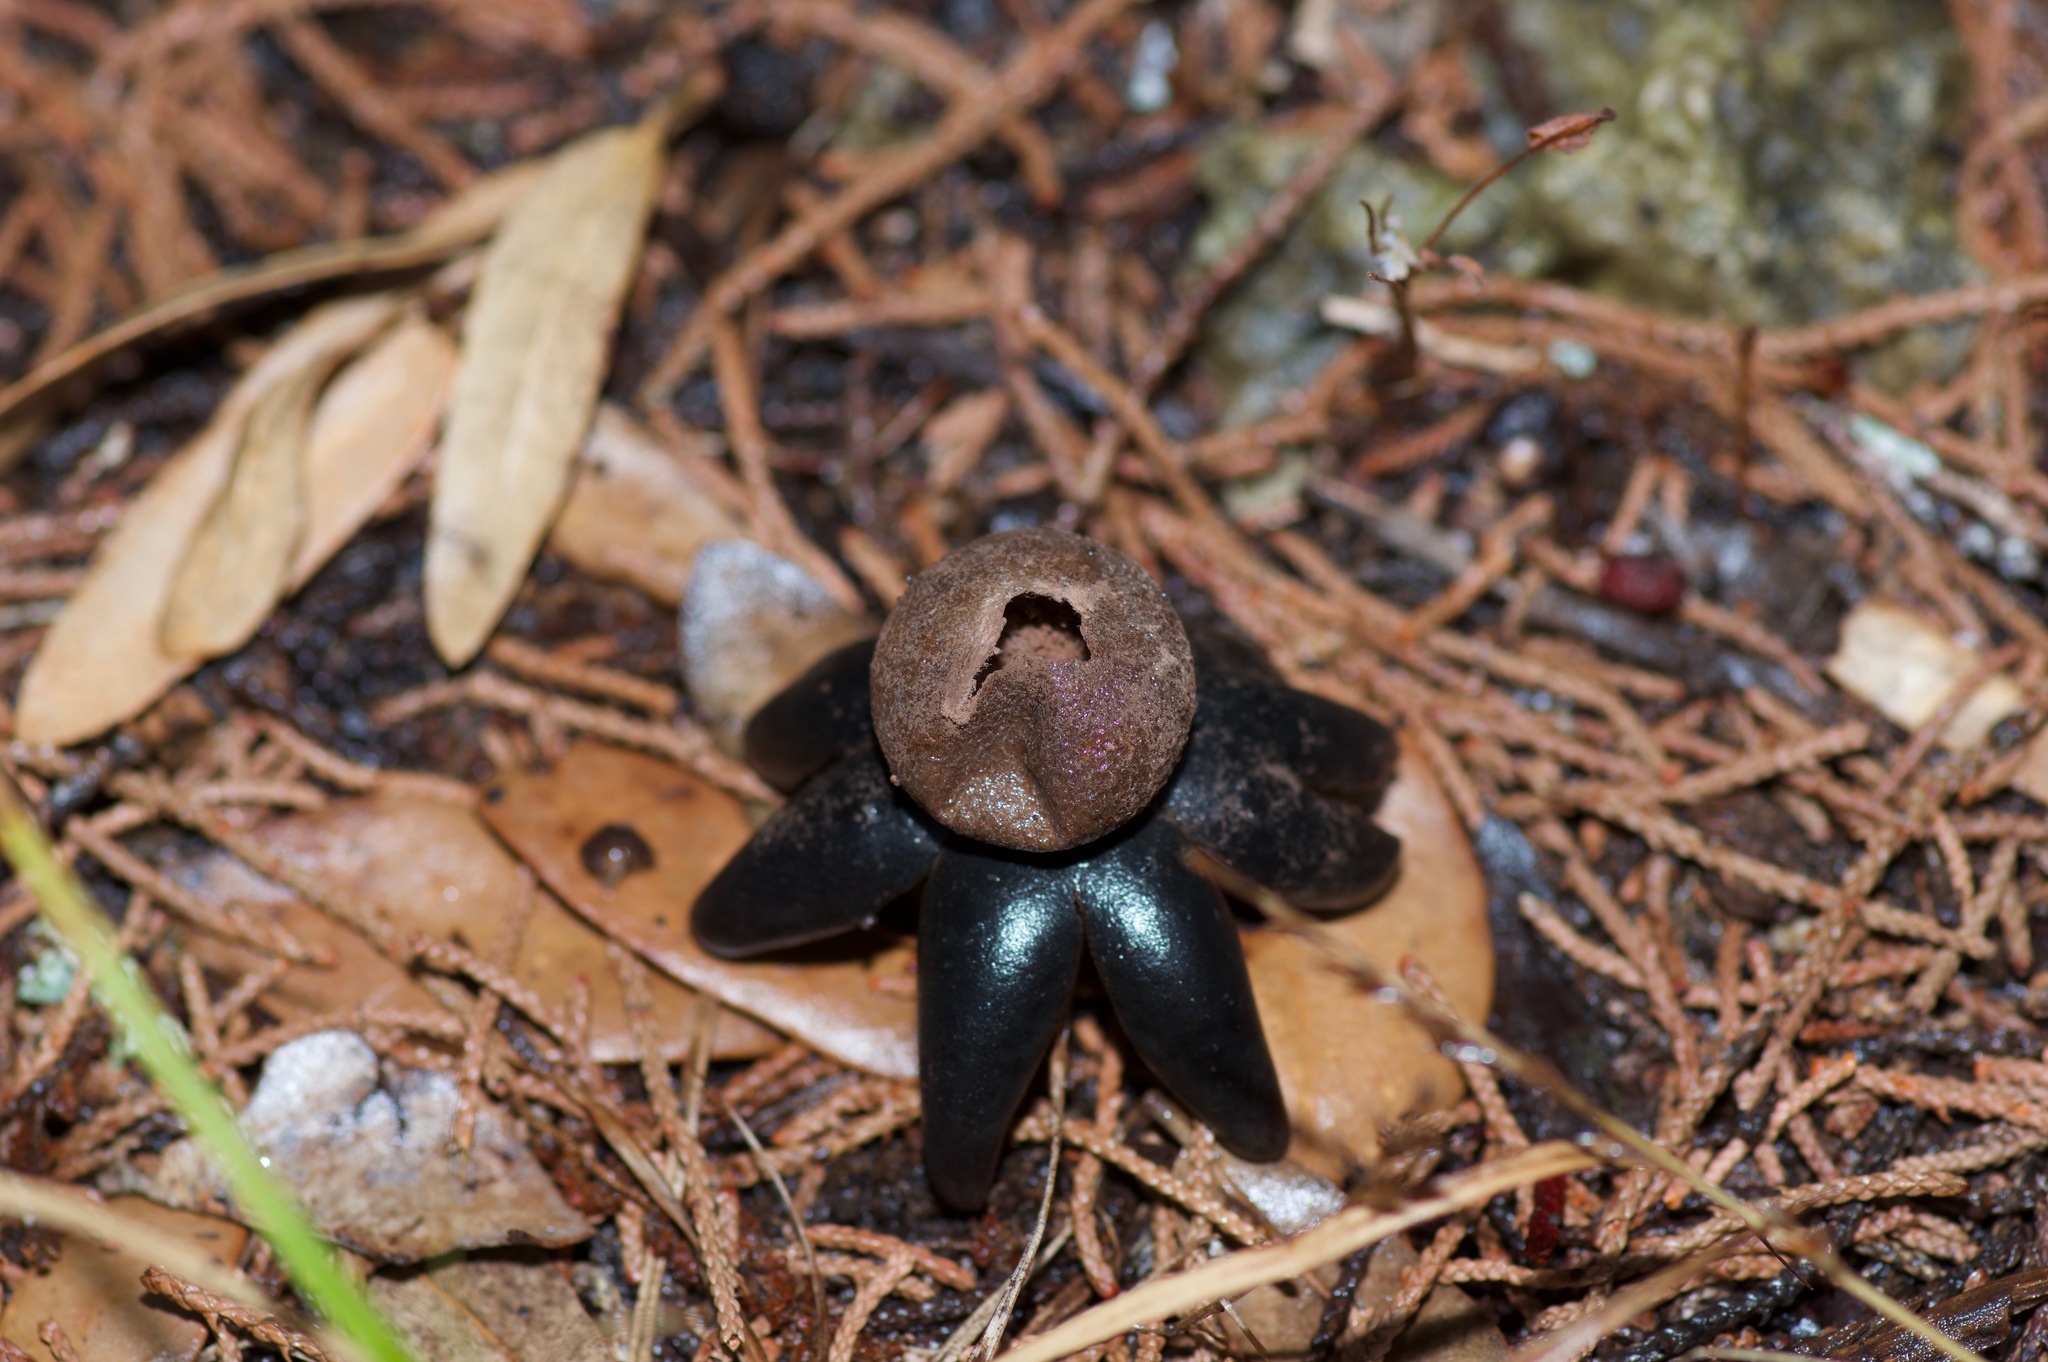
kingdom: Fungi
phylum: Basidiomycota
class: Agaricomycetes
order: Boletales
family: Diplocystidiaceae
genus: Astraeus
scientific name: Astraeus morganii
